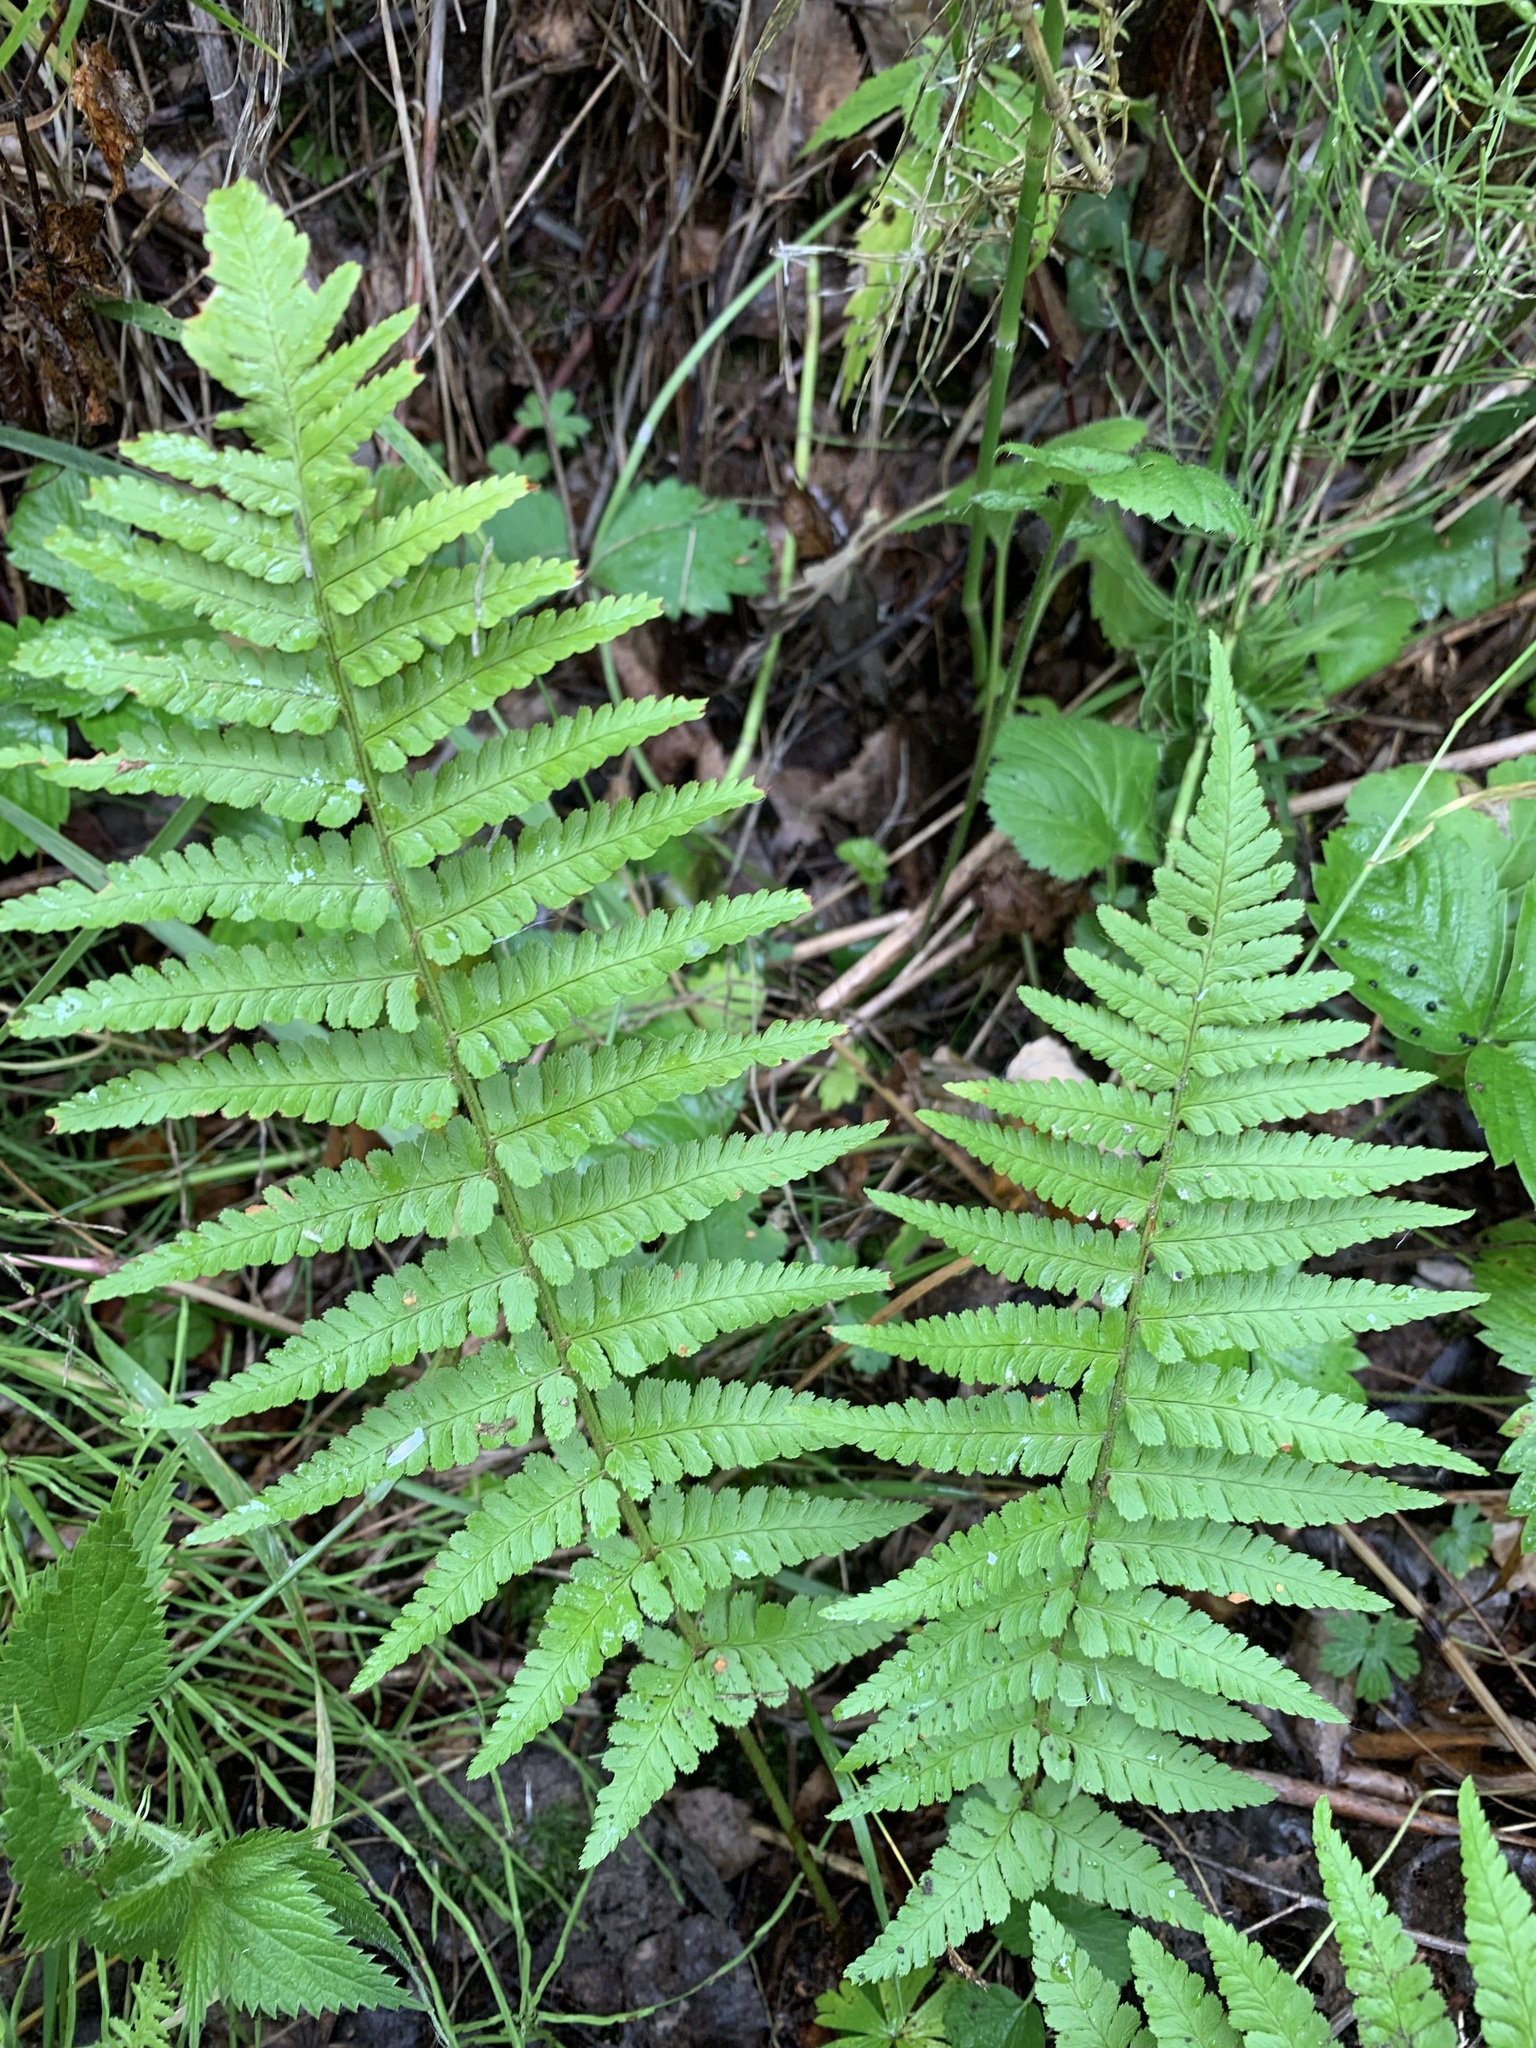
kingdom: Plantae
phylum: Tracheophyta
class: Polypodiopsida
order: Polypodiales
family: Dryopteridaceae
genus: Dryopteris
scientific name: Dryopteris filix-mas
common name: Male fern
